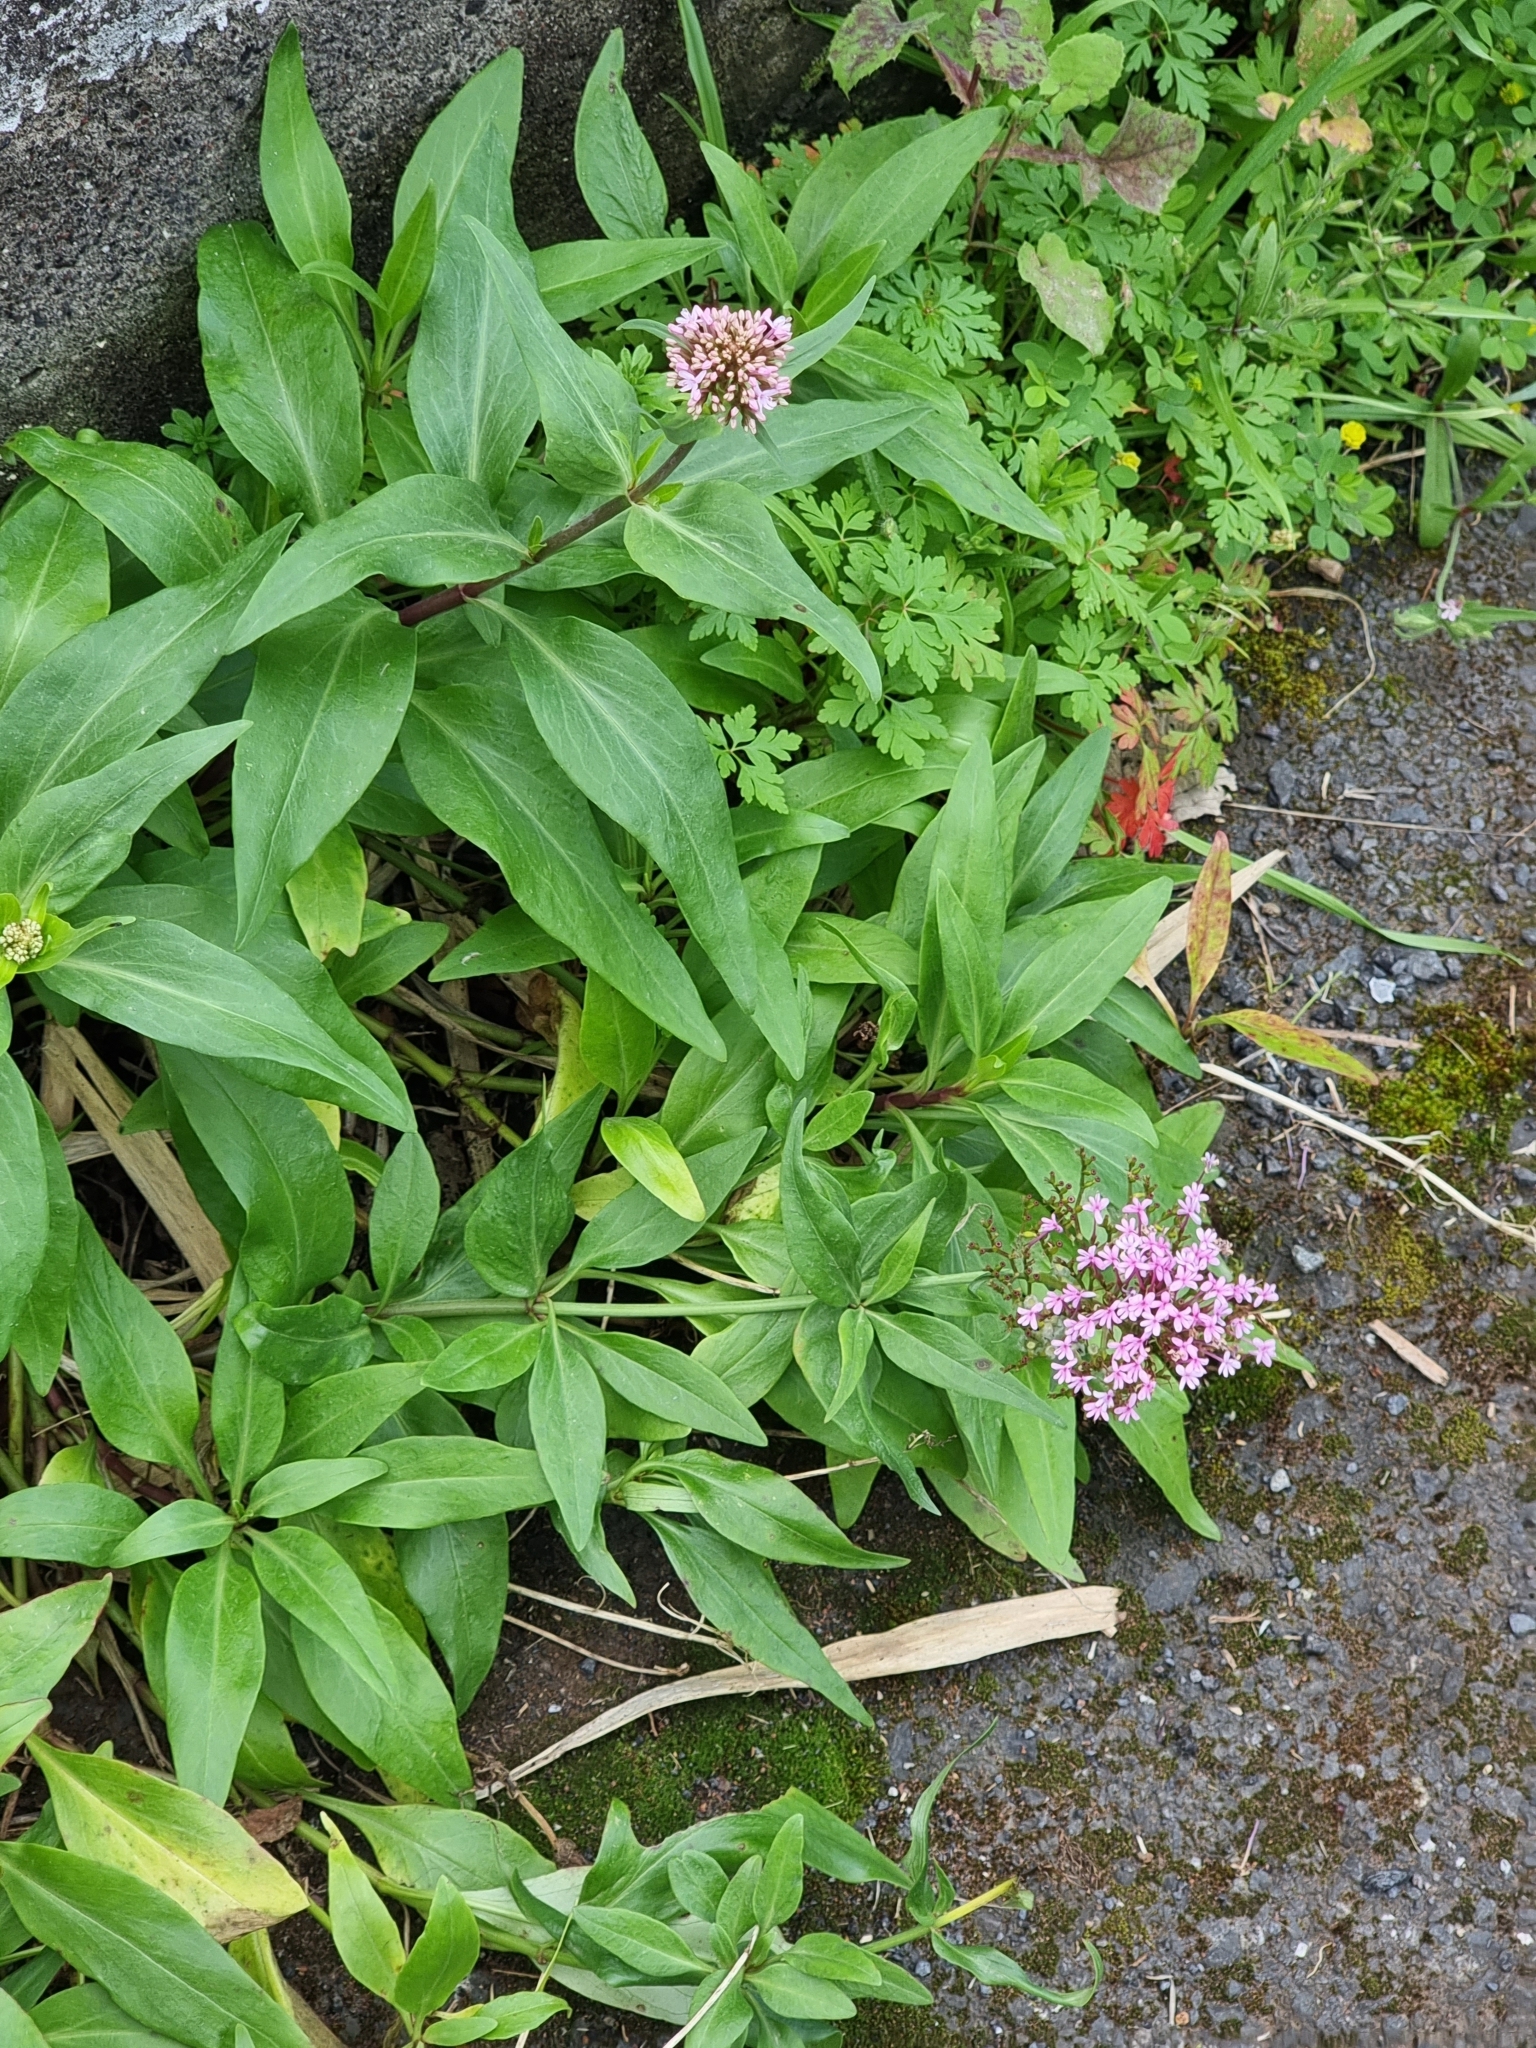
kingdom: Plantae
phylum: Tracheophyta
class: Magnoliopsida
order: Dipsacales
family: Caprifoliaceae
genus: Centranthus
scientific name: Centranthus ruber
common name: Red valerian
